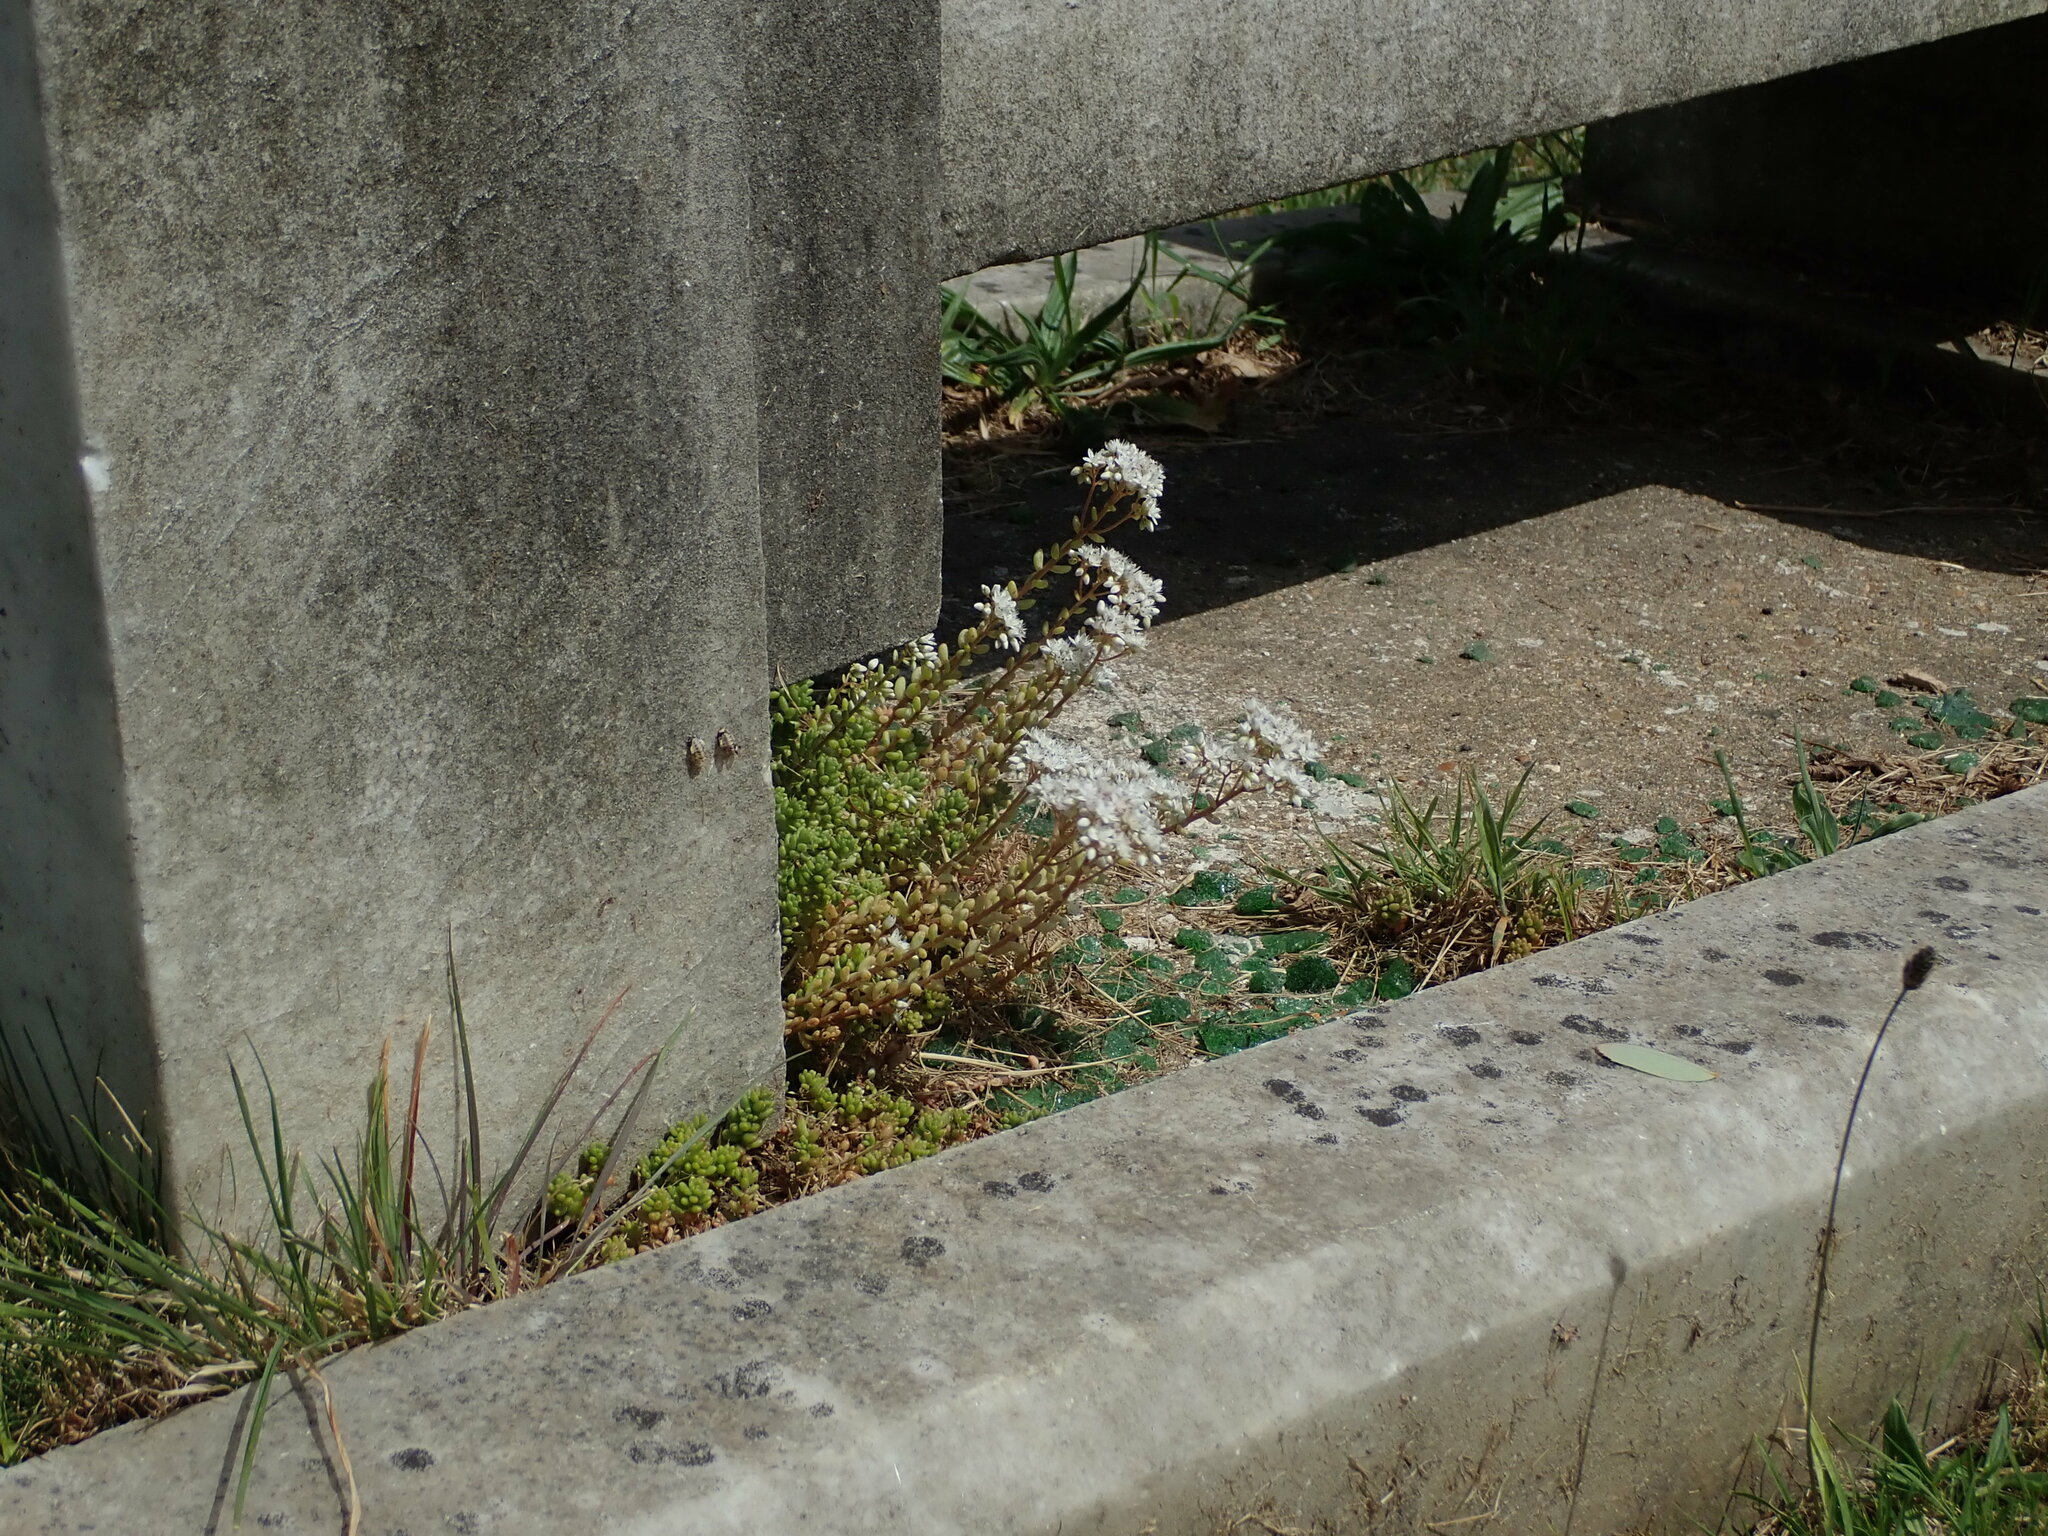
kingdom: Plantae
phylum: Tracheophyta
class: Magnoliopsida
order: Saxifragales
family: Crassulaceae
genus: Sedum
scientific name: Sedum album
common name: White stonecrop
